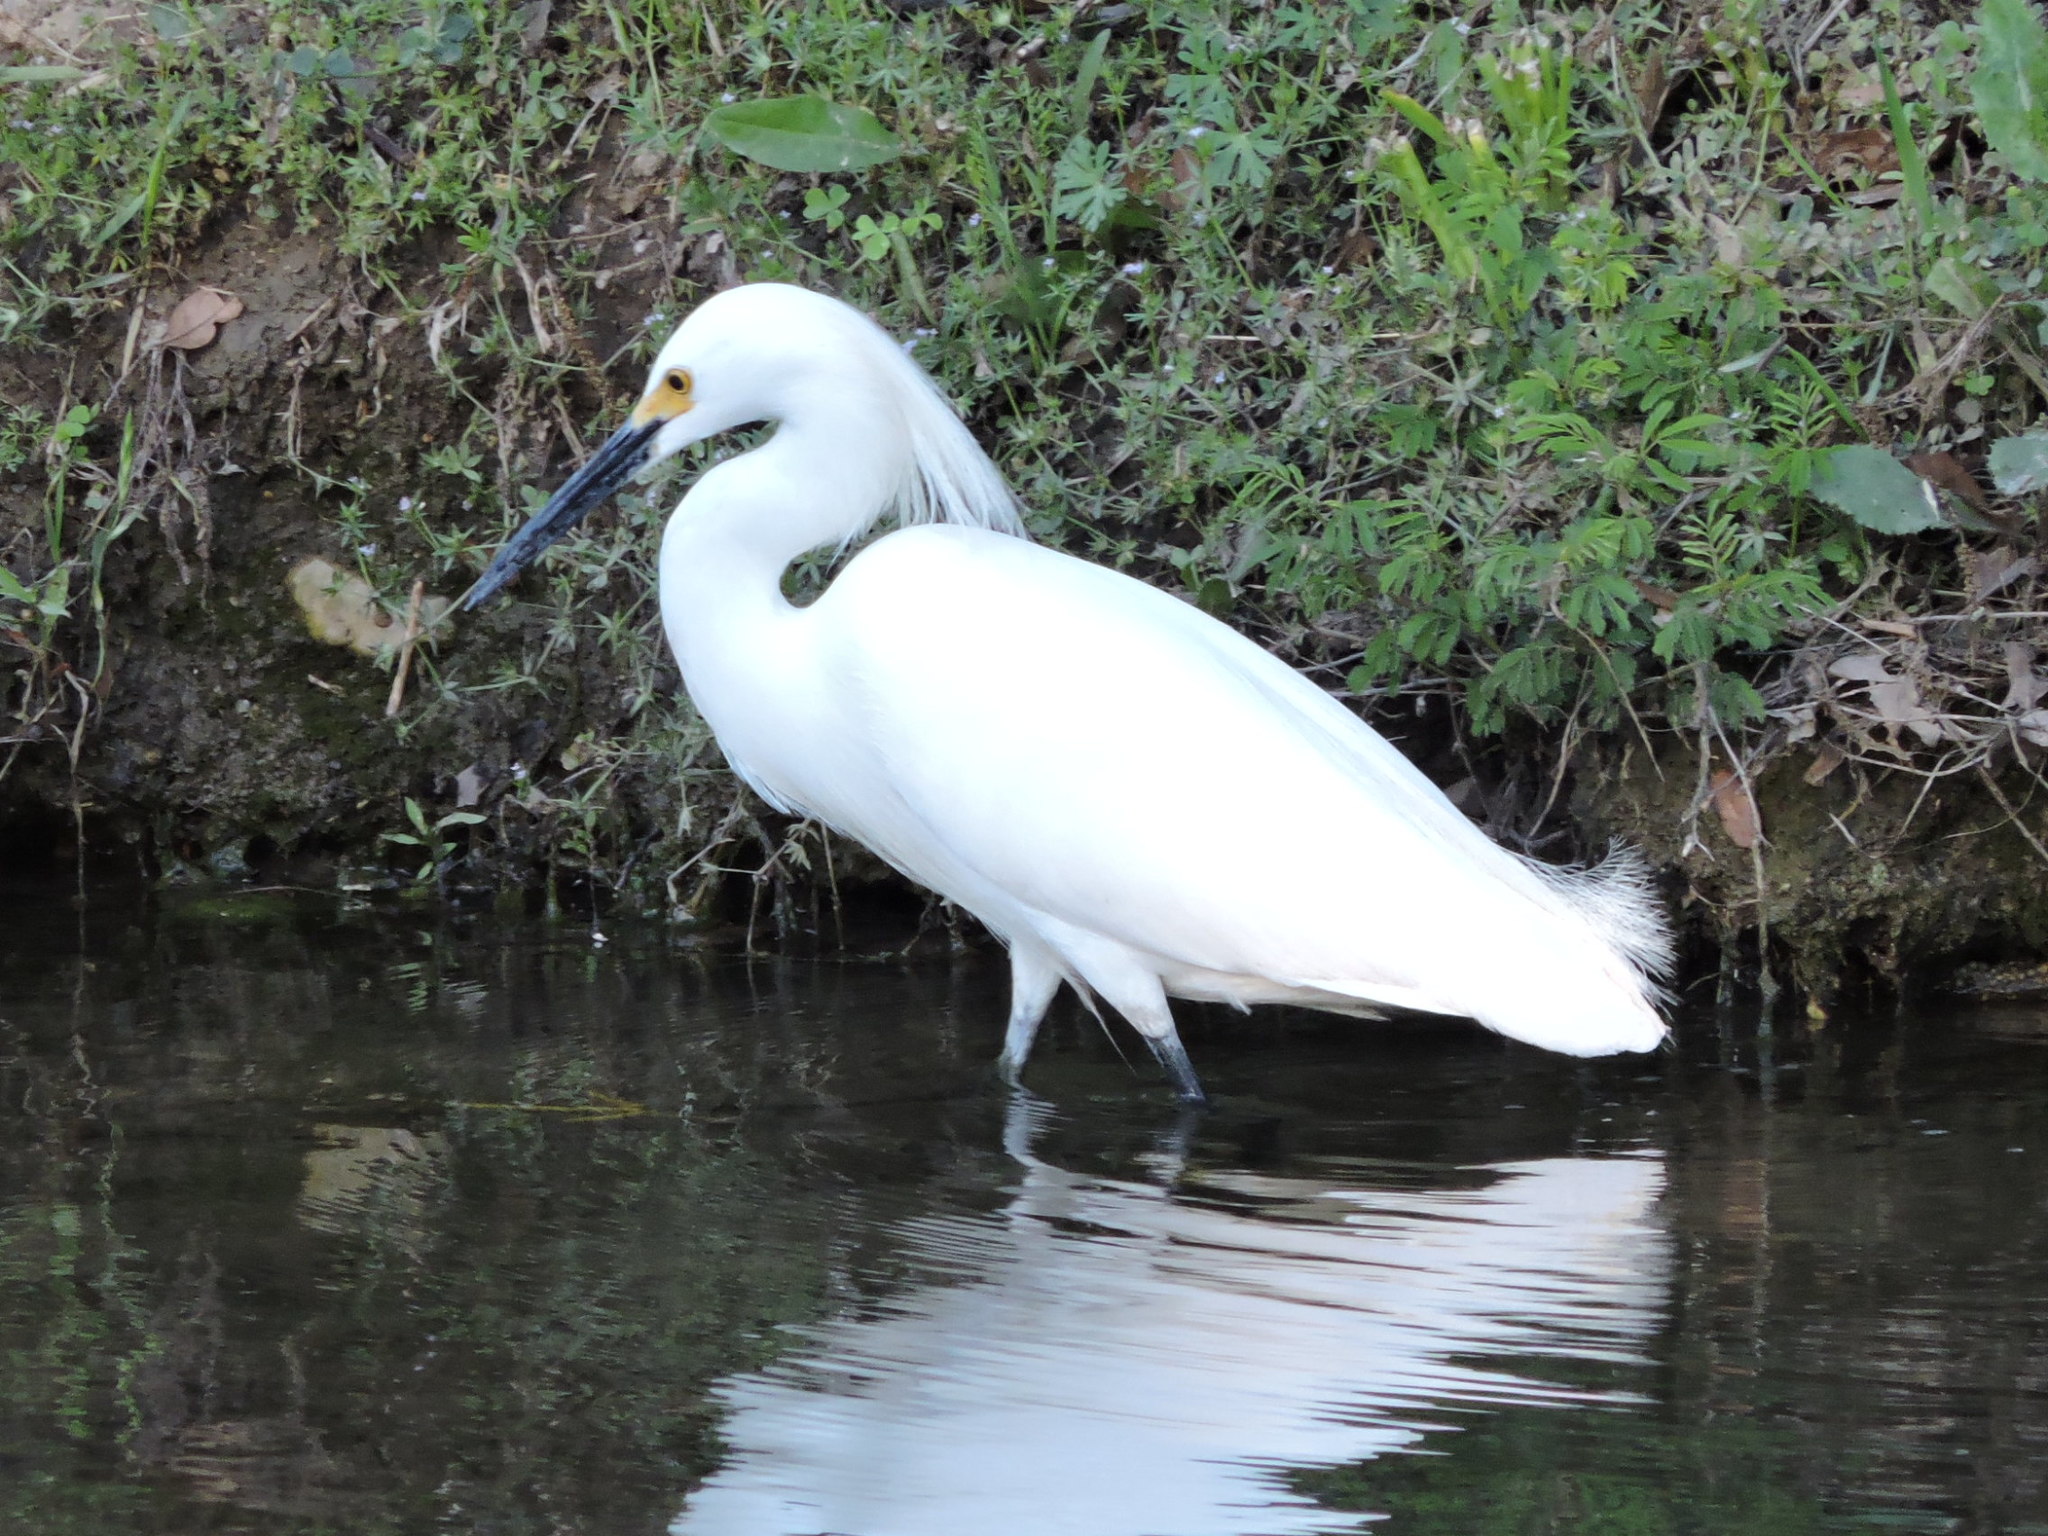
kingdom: Animalia
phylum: Chordata
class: Aves
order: Pelecaniformes
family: Ardeidae
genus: Egretta
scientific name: Egretta thula
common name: Snowy egret
